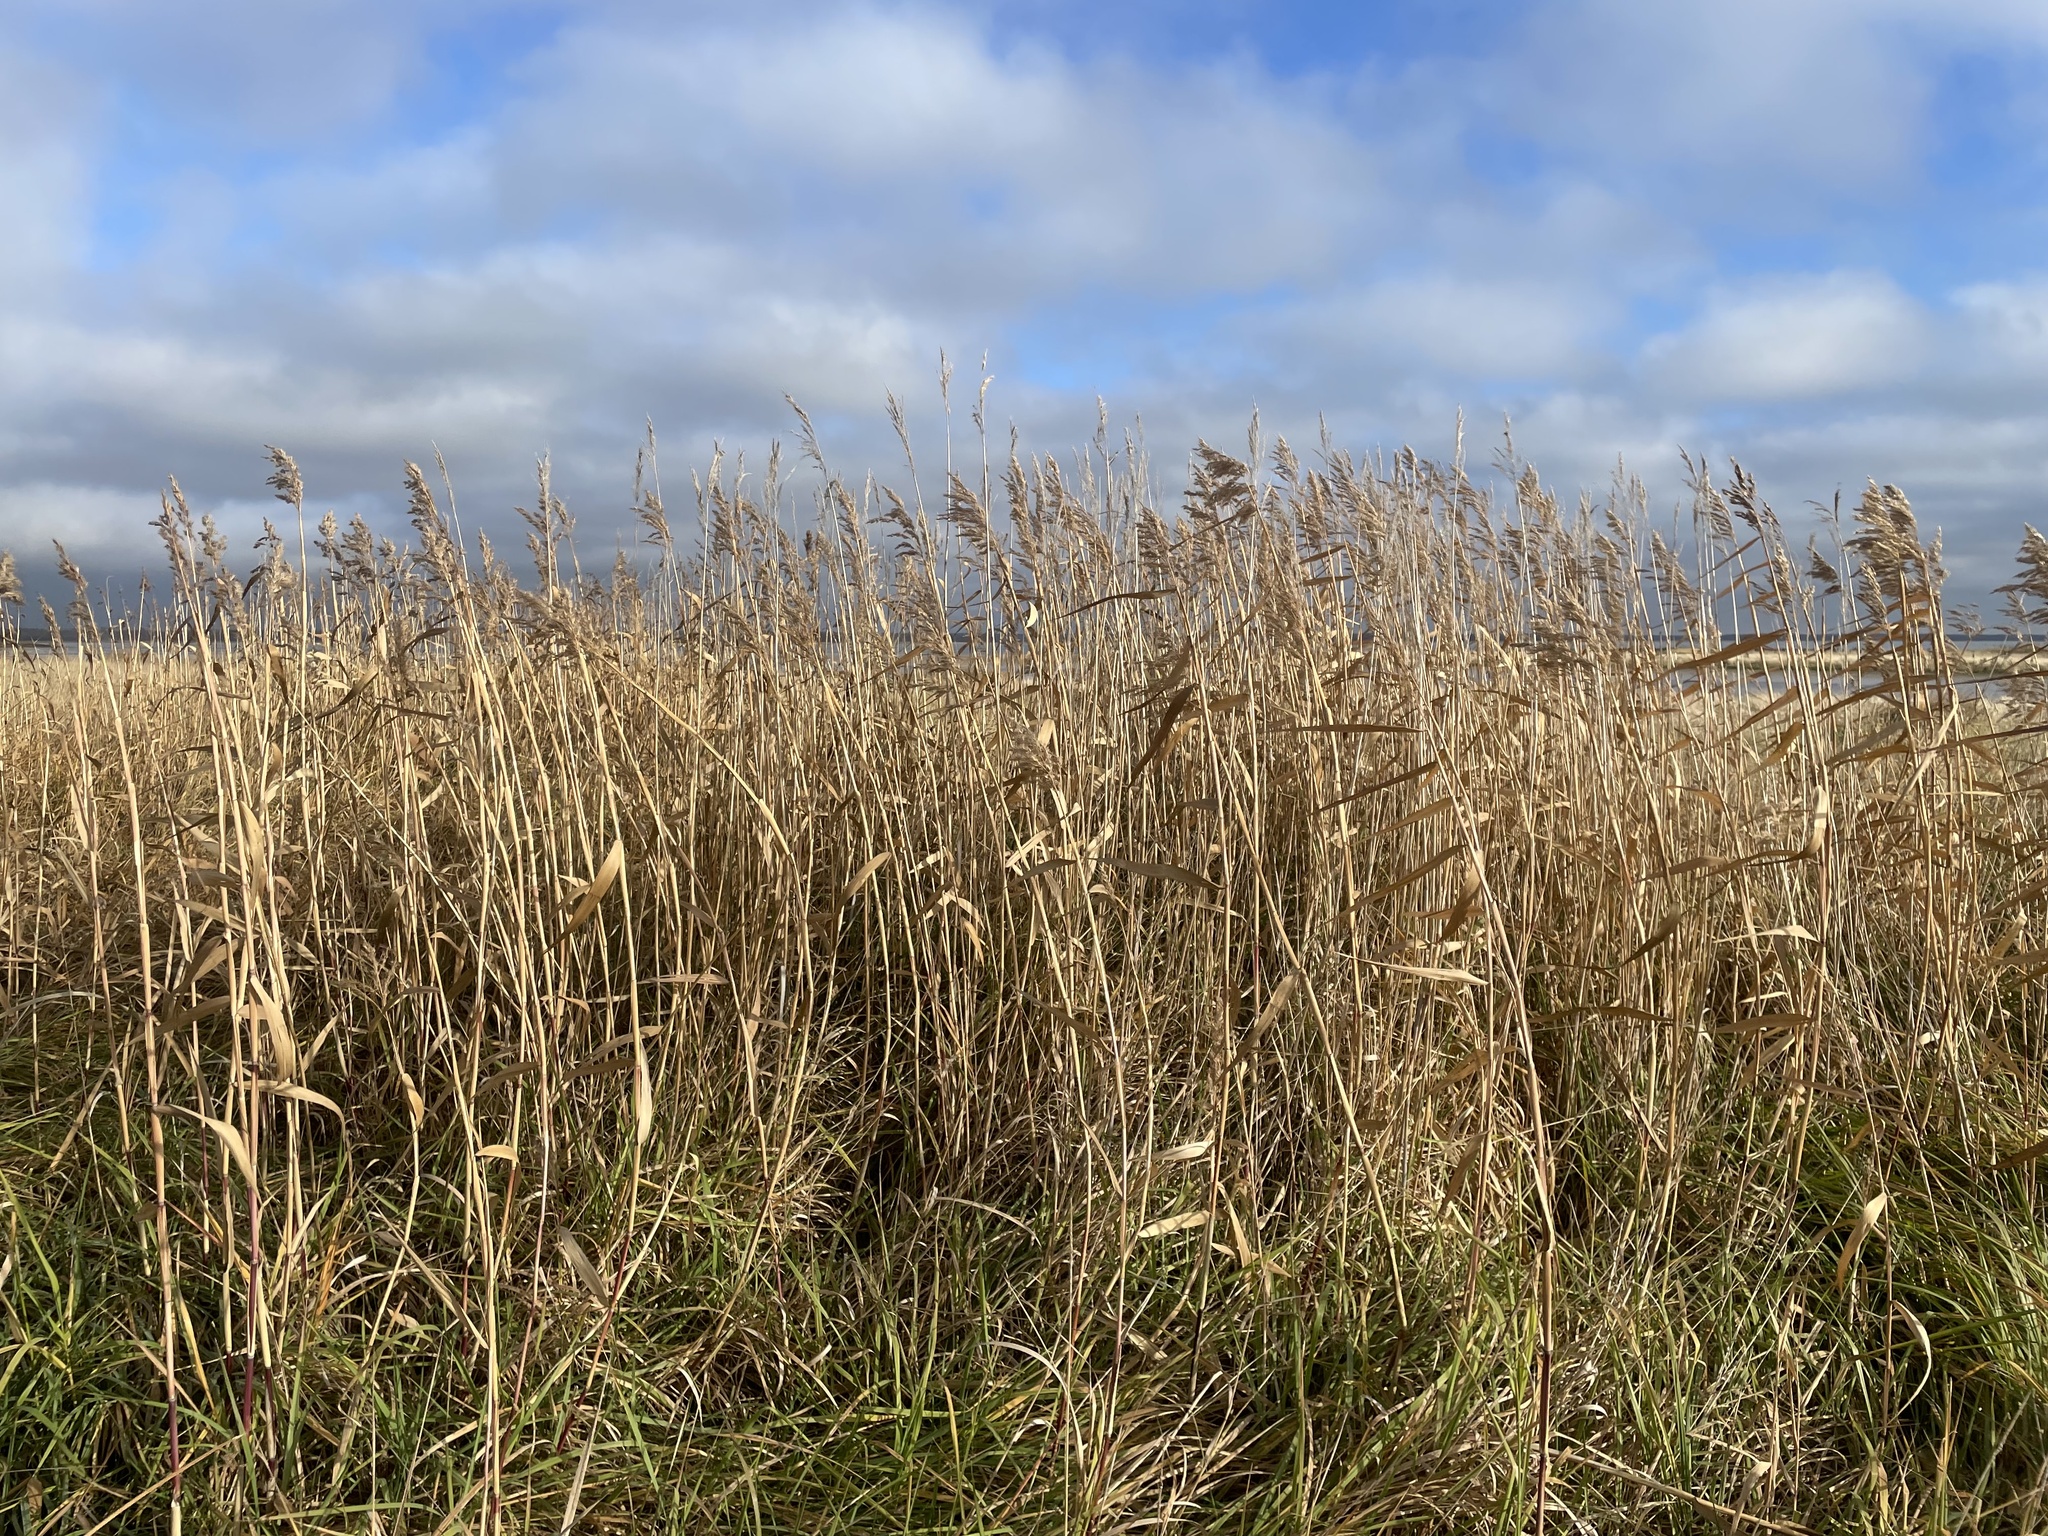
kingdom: Plantae
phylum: Tracheophyta
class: Liliopsida
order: Poales
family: Poaceae
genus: Phragmites
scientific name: Phragmites australis
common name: Common reed
